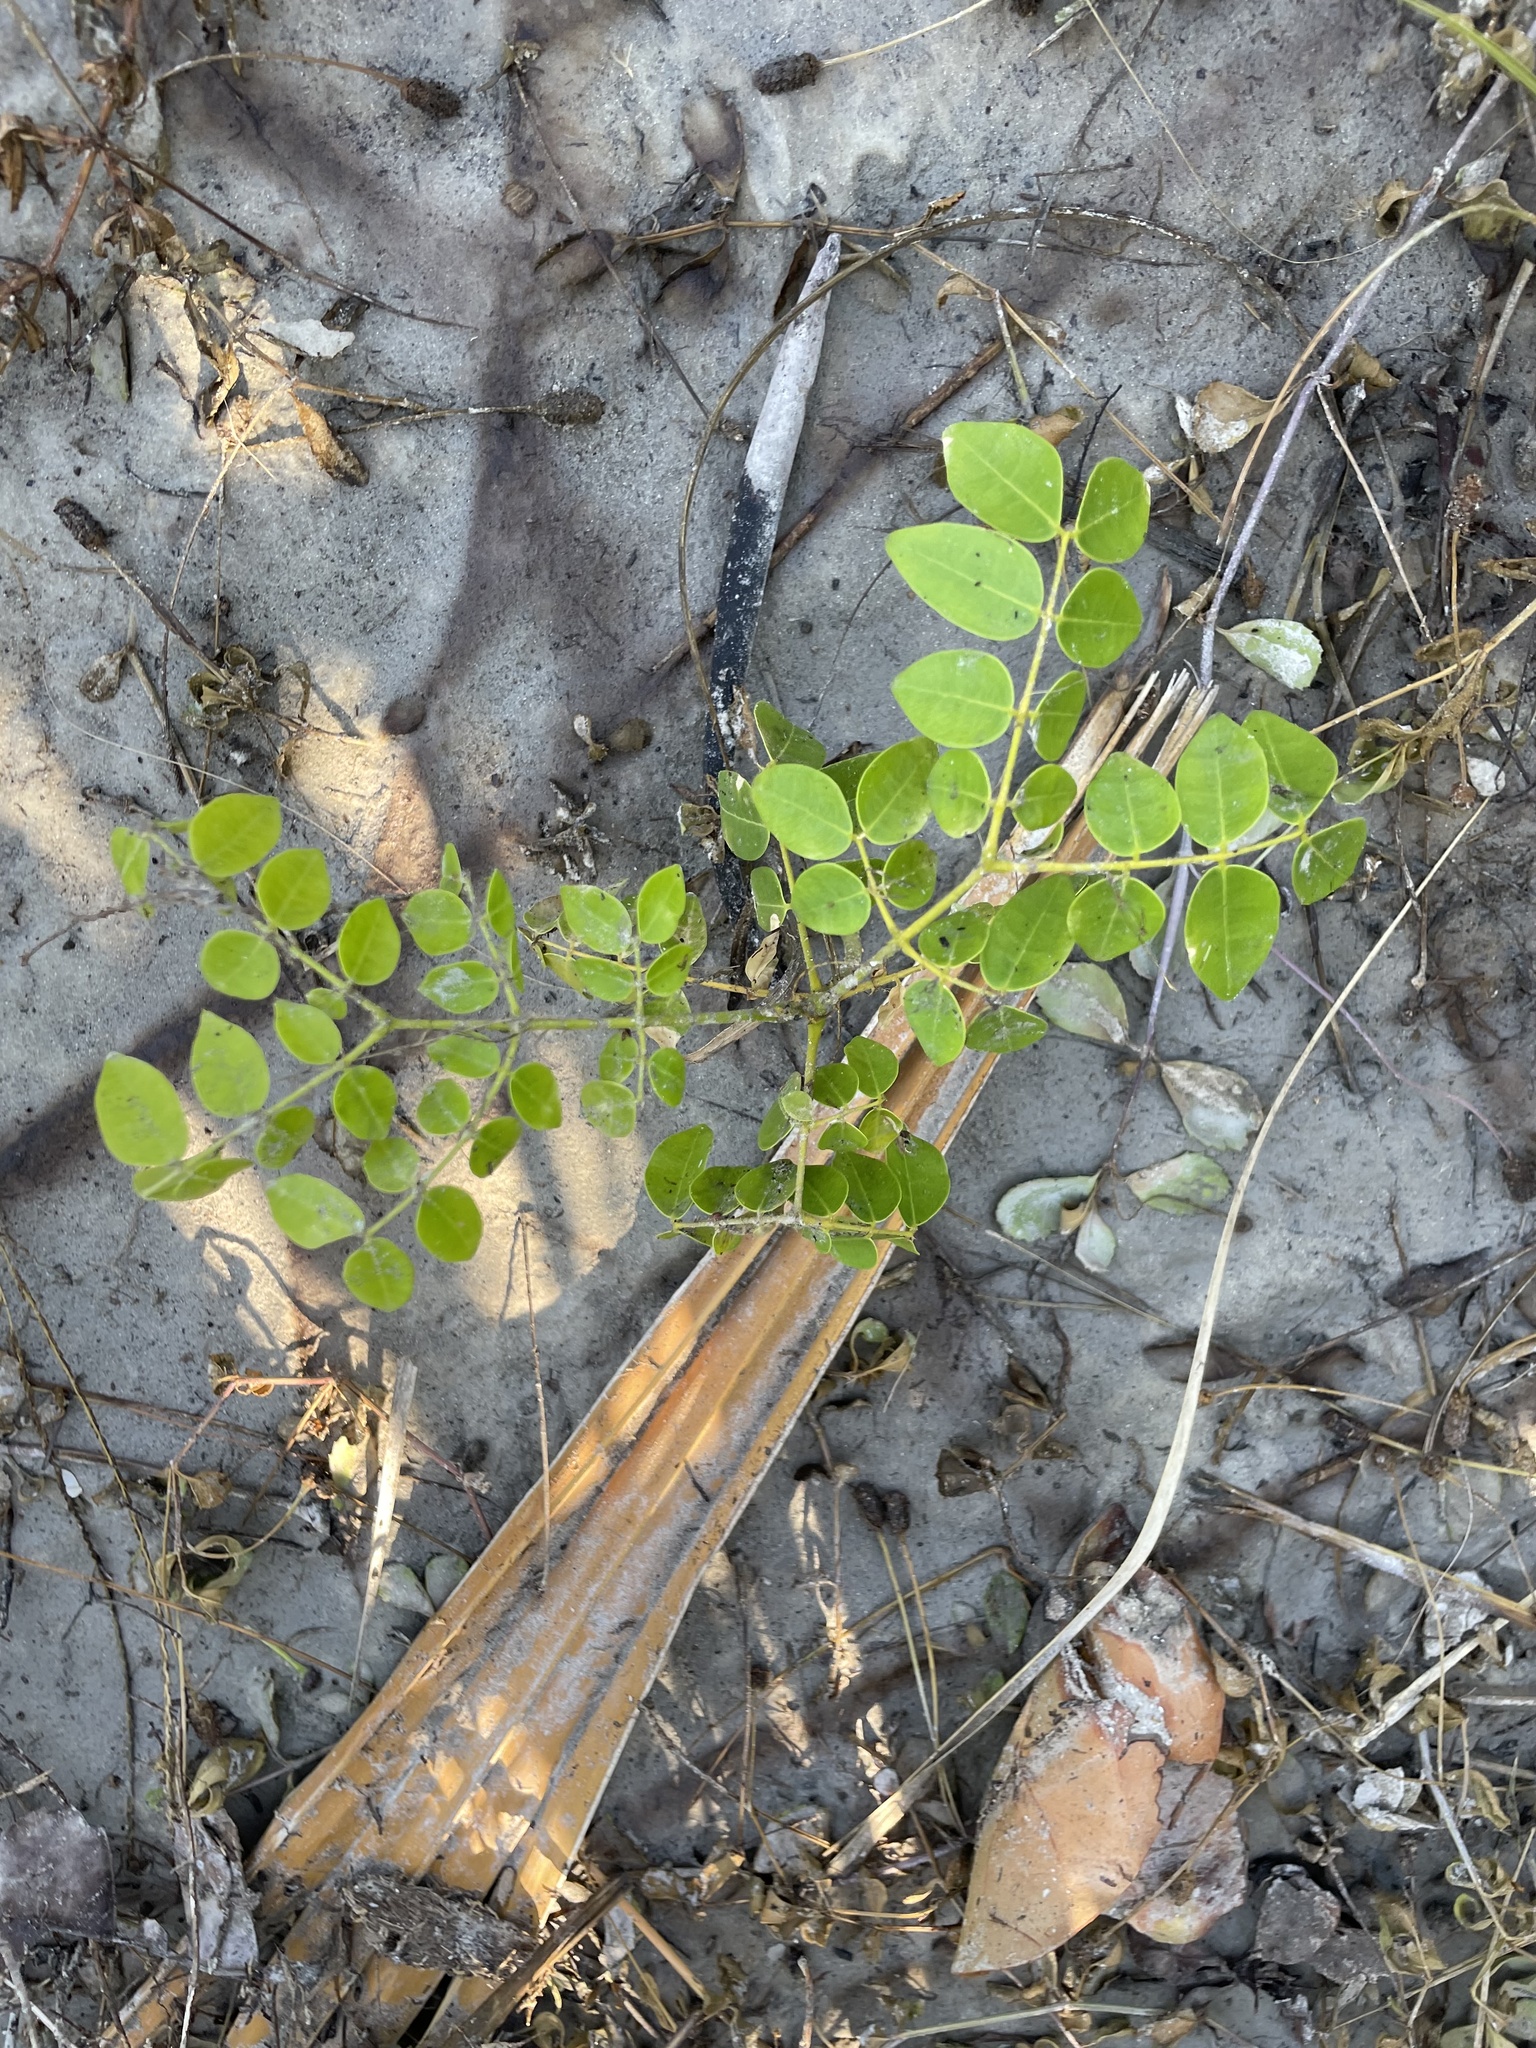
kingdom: Plantae
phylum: Tracheophyta
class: Magnoliopsida
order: Fabales
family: Fabaceae
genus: Guilandina
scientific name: Guilandina bonduc
